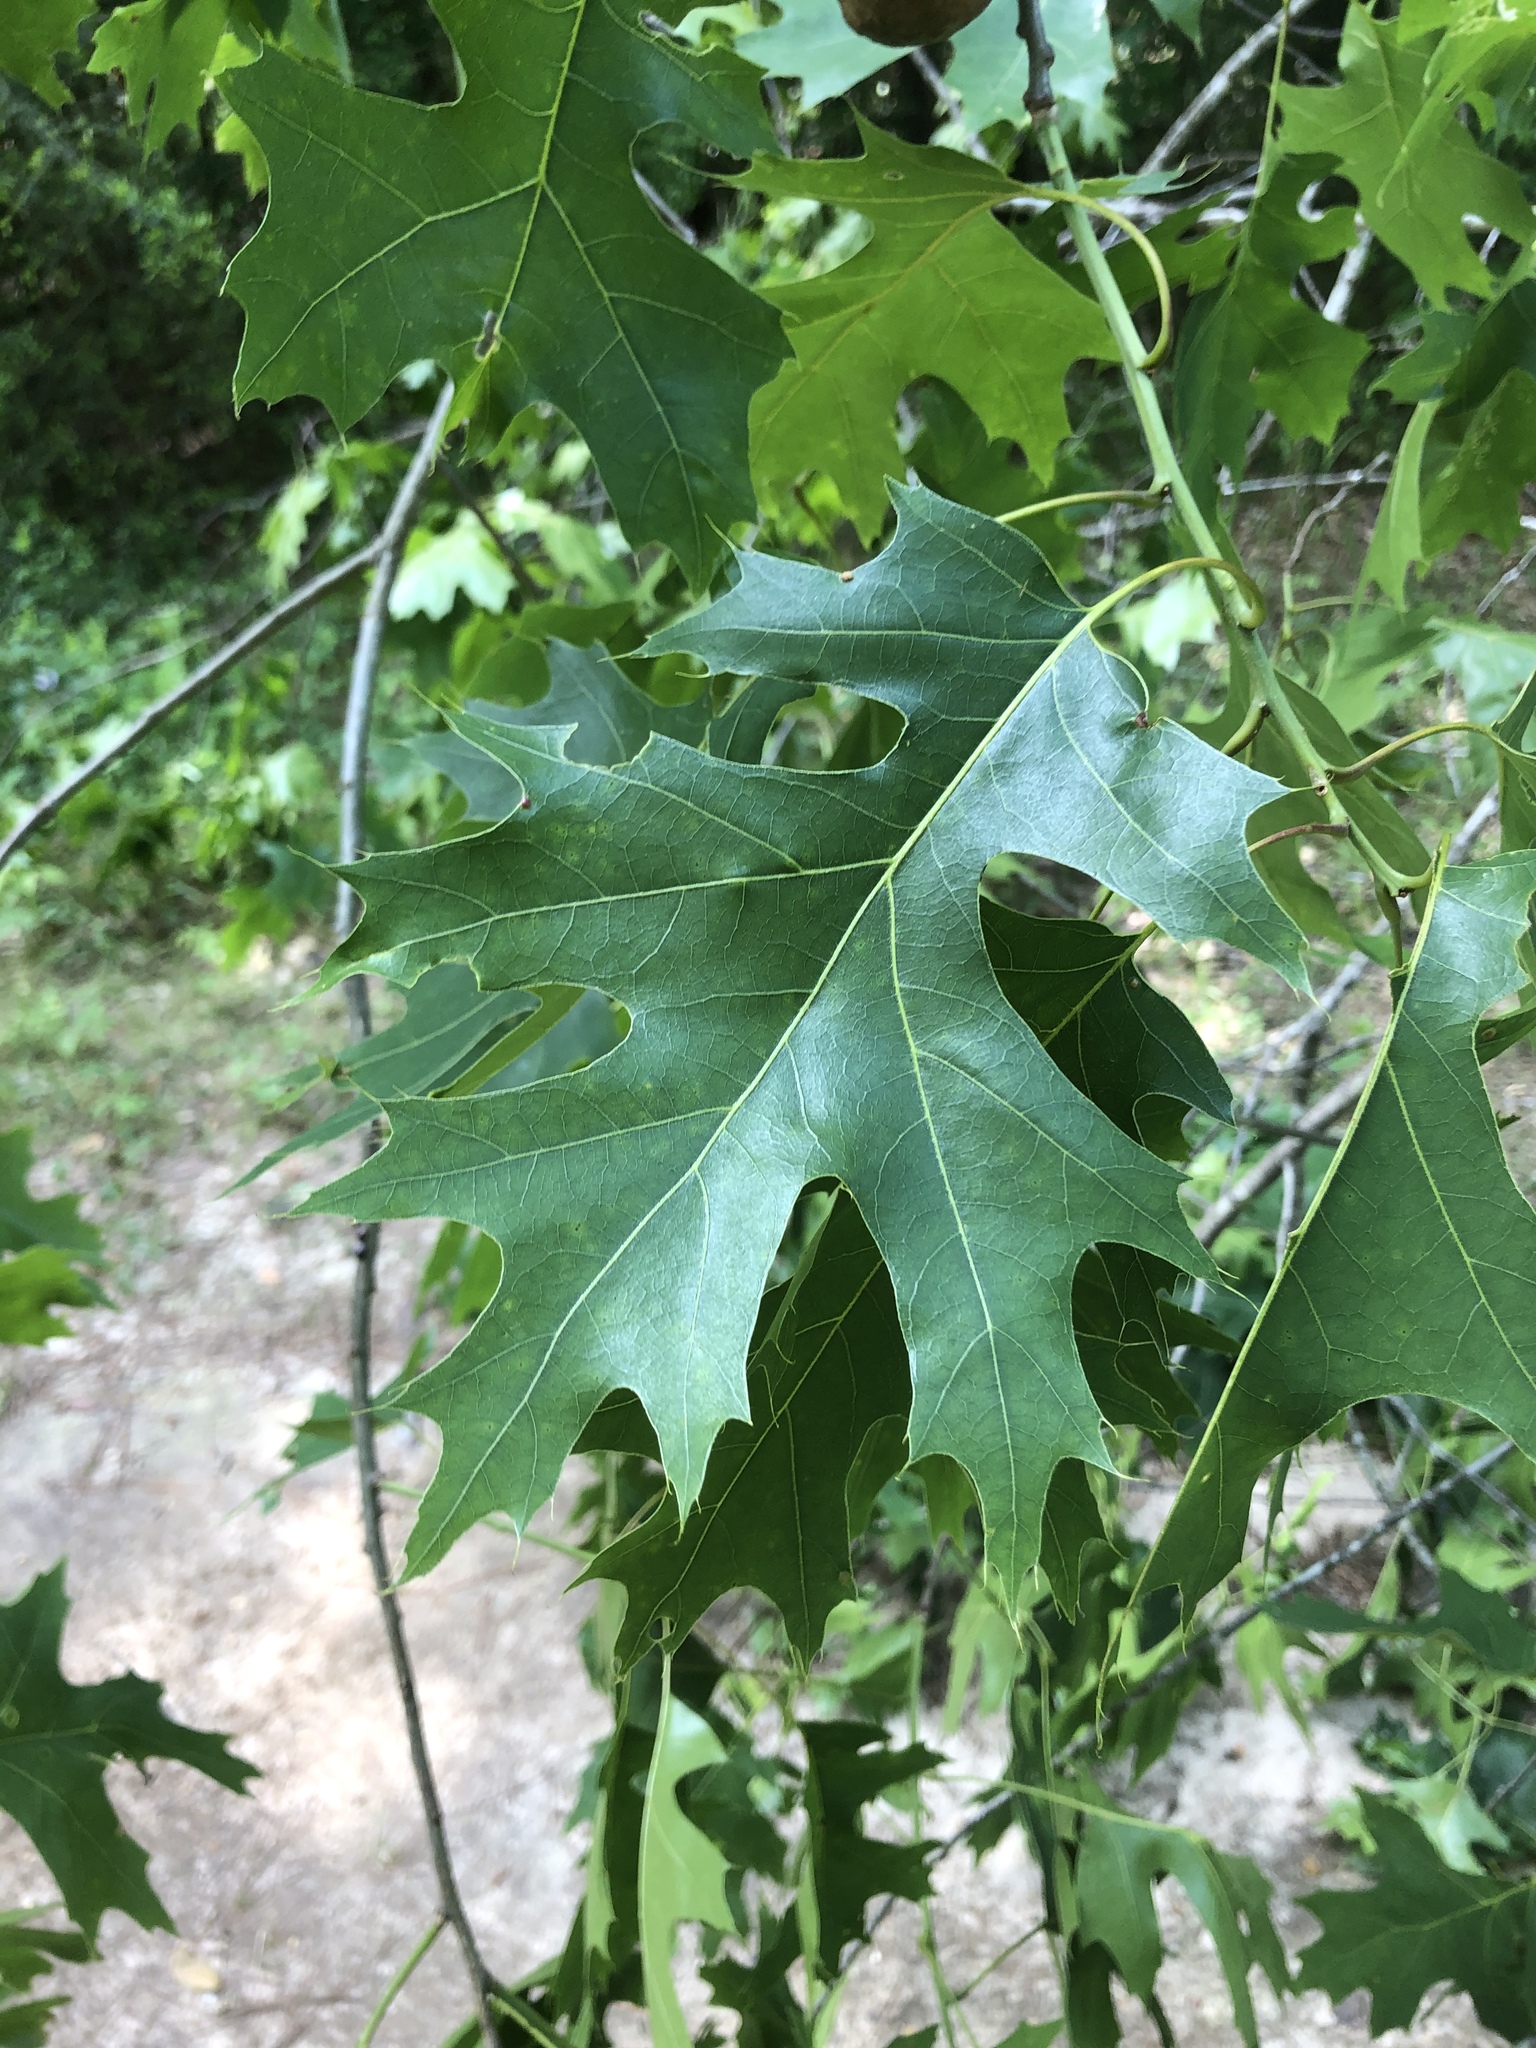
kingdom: Plantae
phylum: Tracheophyta
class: Magnoliopsida
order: Fagales
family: Fagaceae
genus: Quercus
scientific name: Quercus coccinea
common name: Scarlet oak
